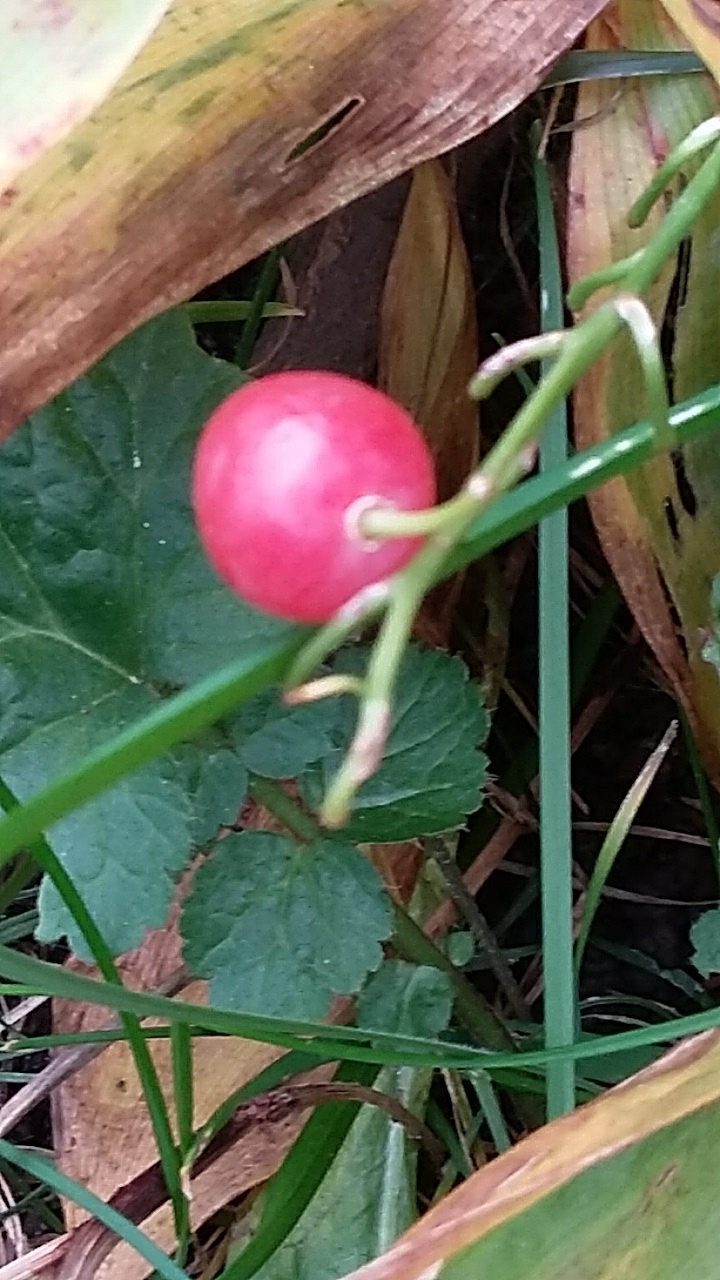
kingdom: Plantae
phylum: Tracheophyta
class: Liliopsida
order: Asparagales
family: Asparagaceae
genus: Convallaria
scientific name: Convallaria majalis
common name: Lily-of-the-valley
